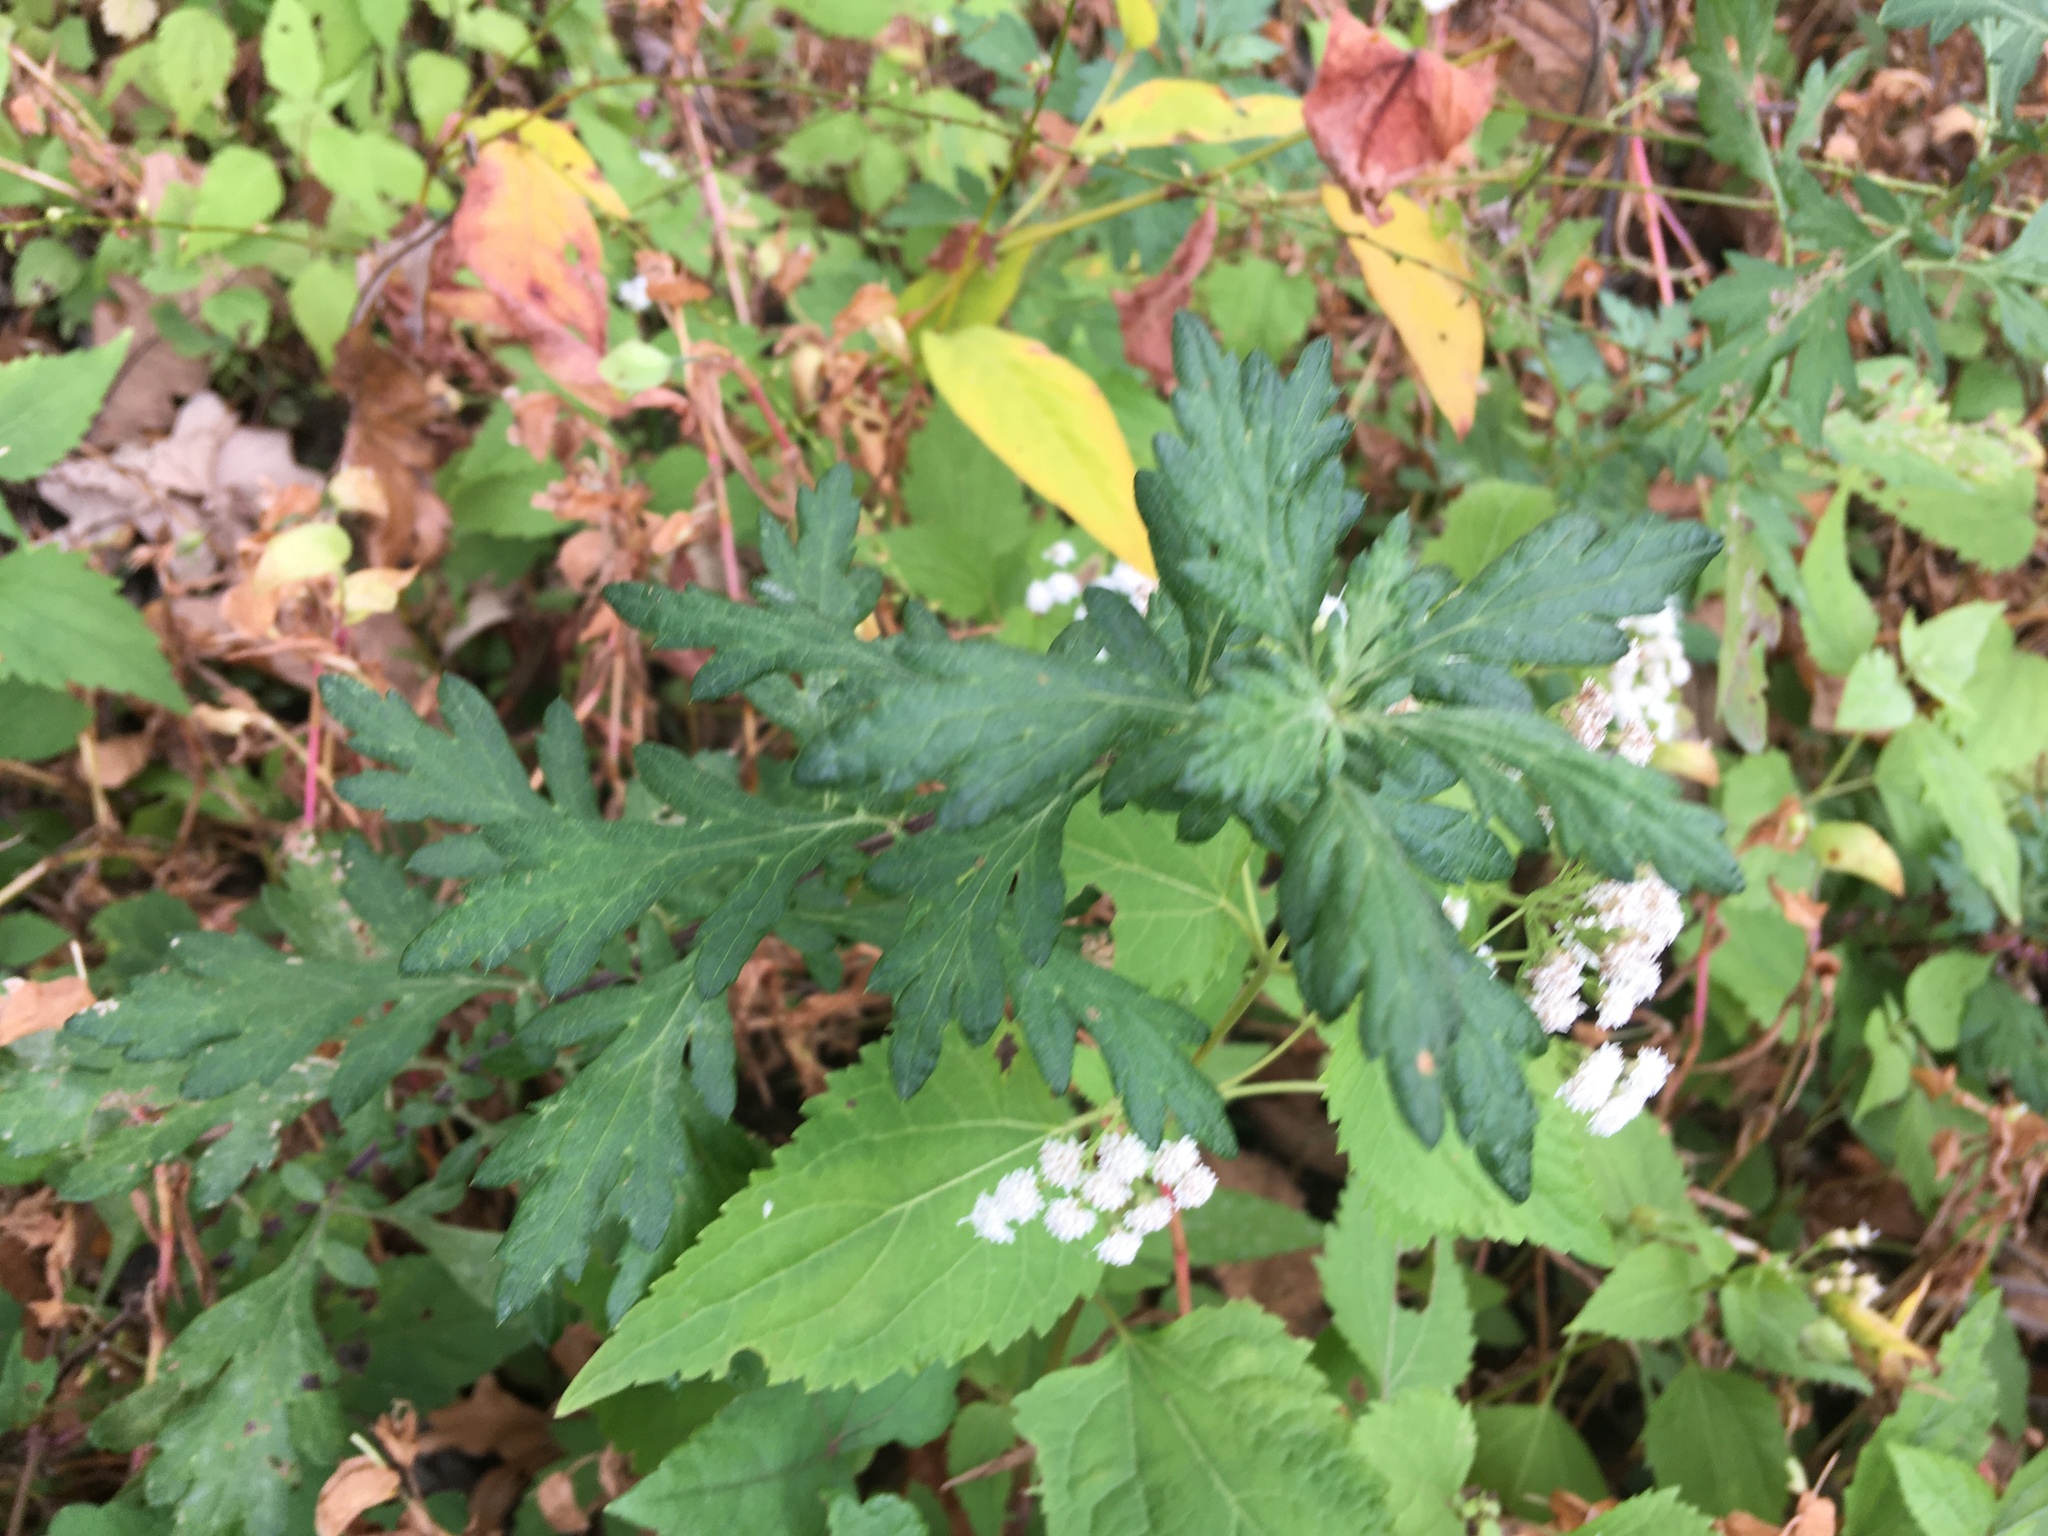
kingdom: Plantae
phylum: Tracheophyta
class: Magnoliopsida
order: Asterales
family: Asteraceae
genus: Artemisia
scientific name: Artemisia vulgaris
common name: Mugwort
